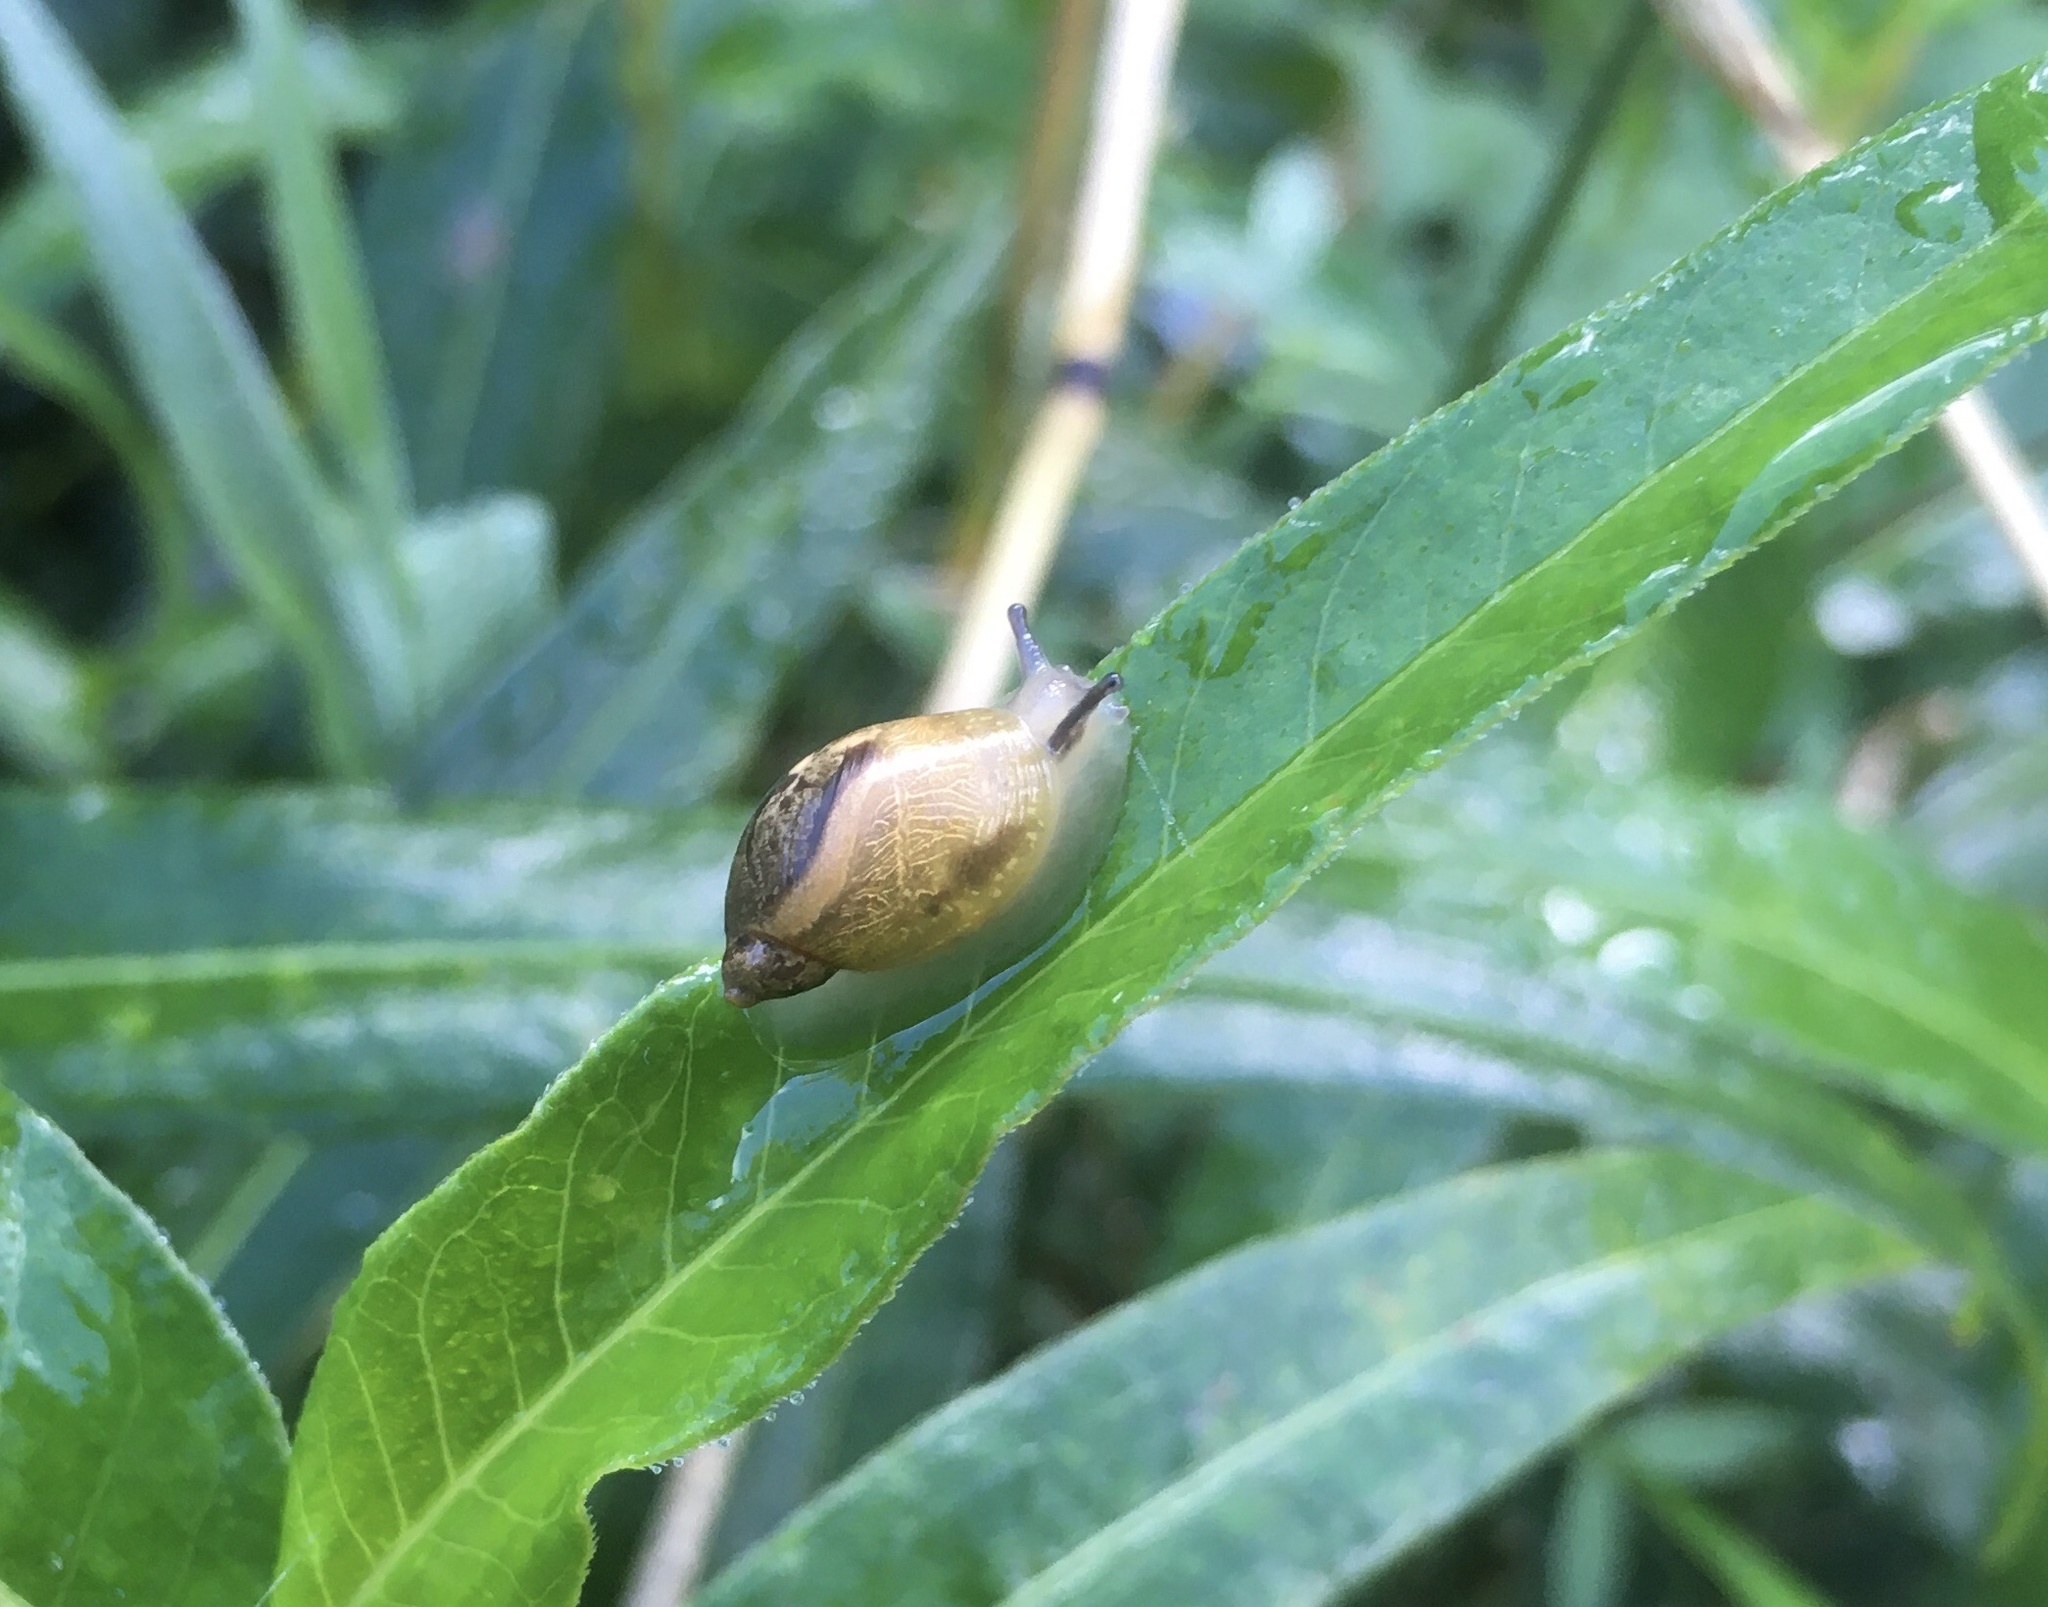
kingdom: Animalia
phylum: Mollusca
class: Gastropoda
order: Stylommatophora
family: Succineidae
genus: Succinea
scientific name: Succinea putris
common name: European ambersnail
